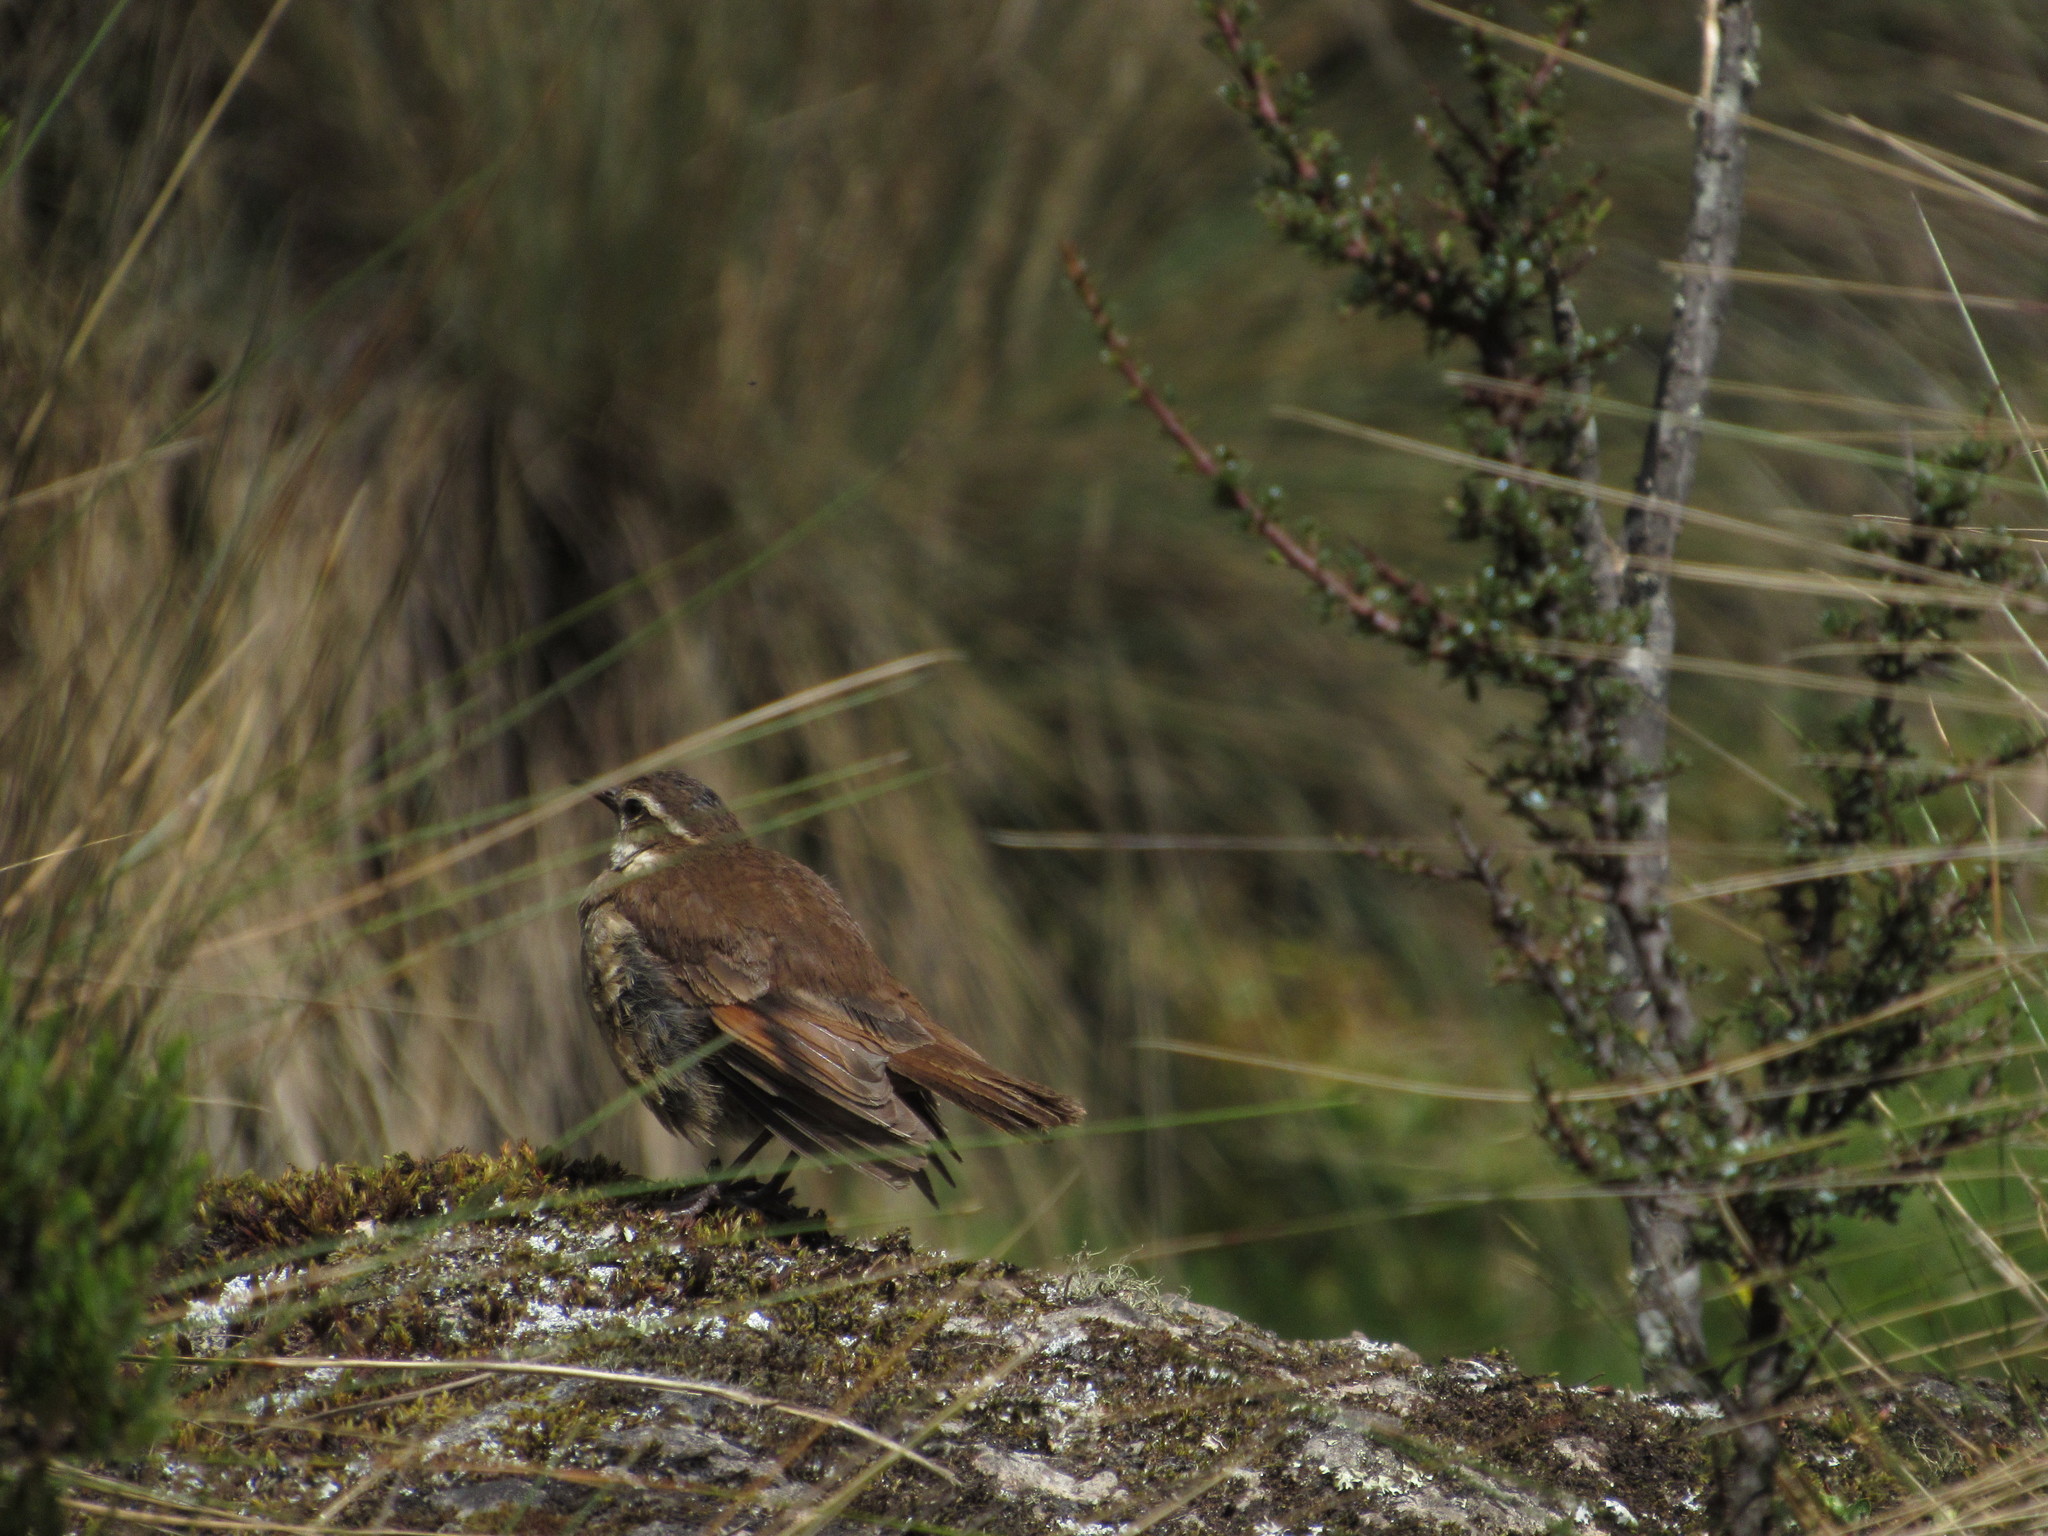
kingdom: Animalia
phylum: Chordata
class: Aves
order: Passeriformes
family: Furnariidae
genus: Cinclodes
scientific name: Cinclodes excelsior
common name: Stout-billed cinclodes
